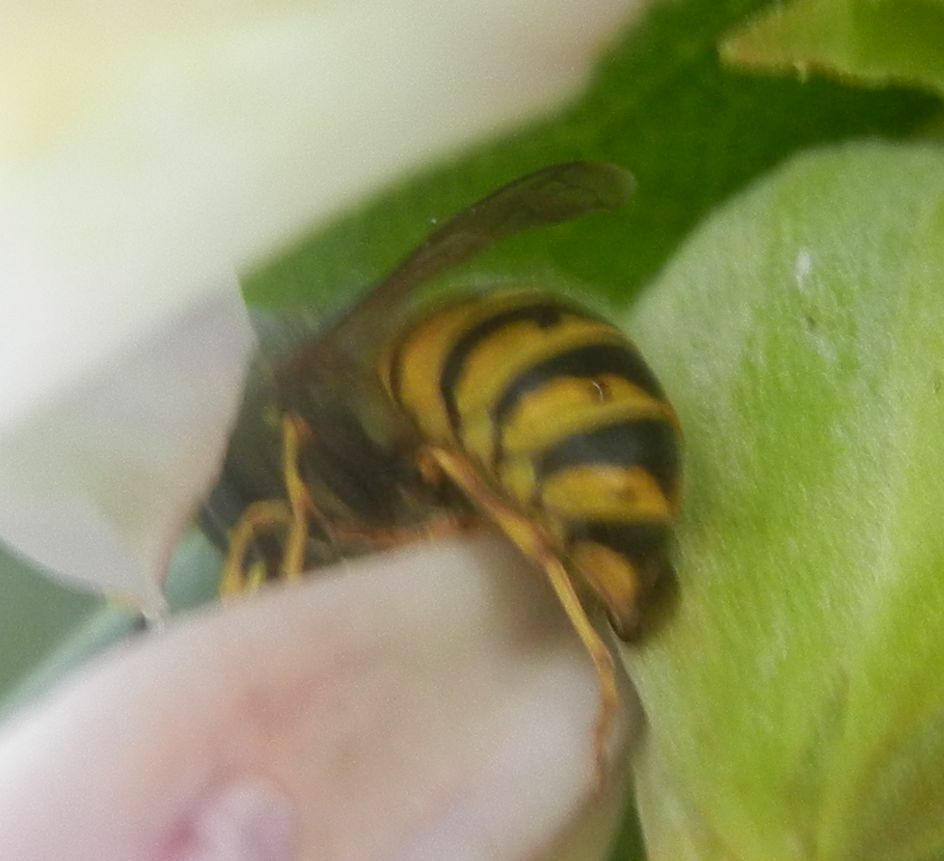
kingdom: Animalia
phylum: Arthropoda
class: Insecta
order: Hymenoptera
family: Vespidae
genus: Vespula
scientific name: Vespula vulgaris
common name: Common wasp
